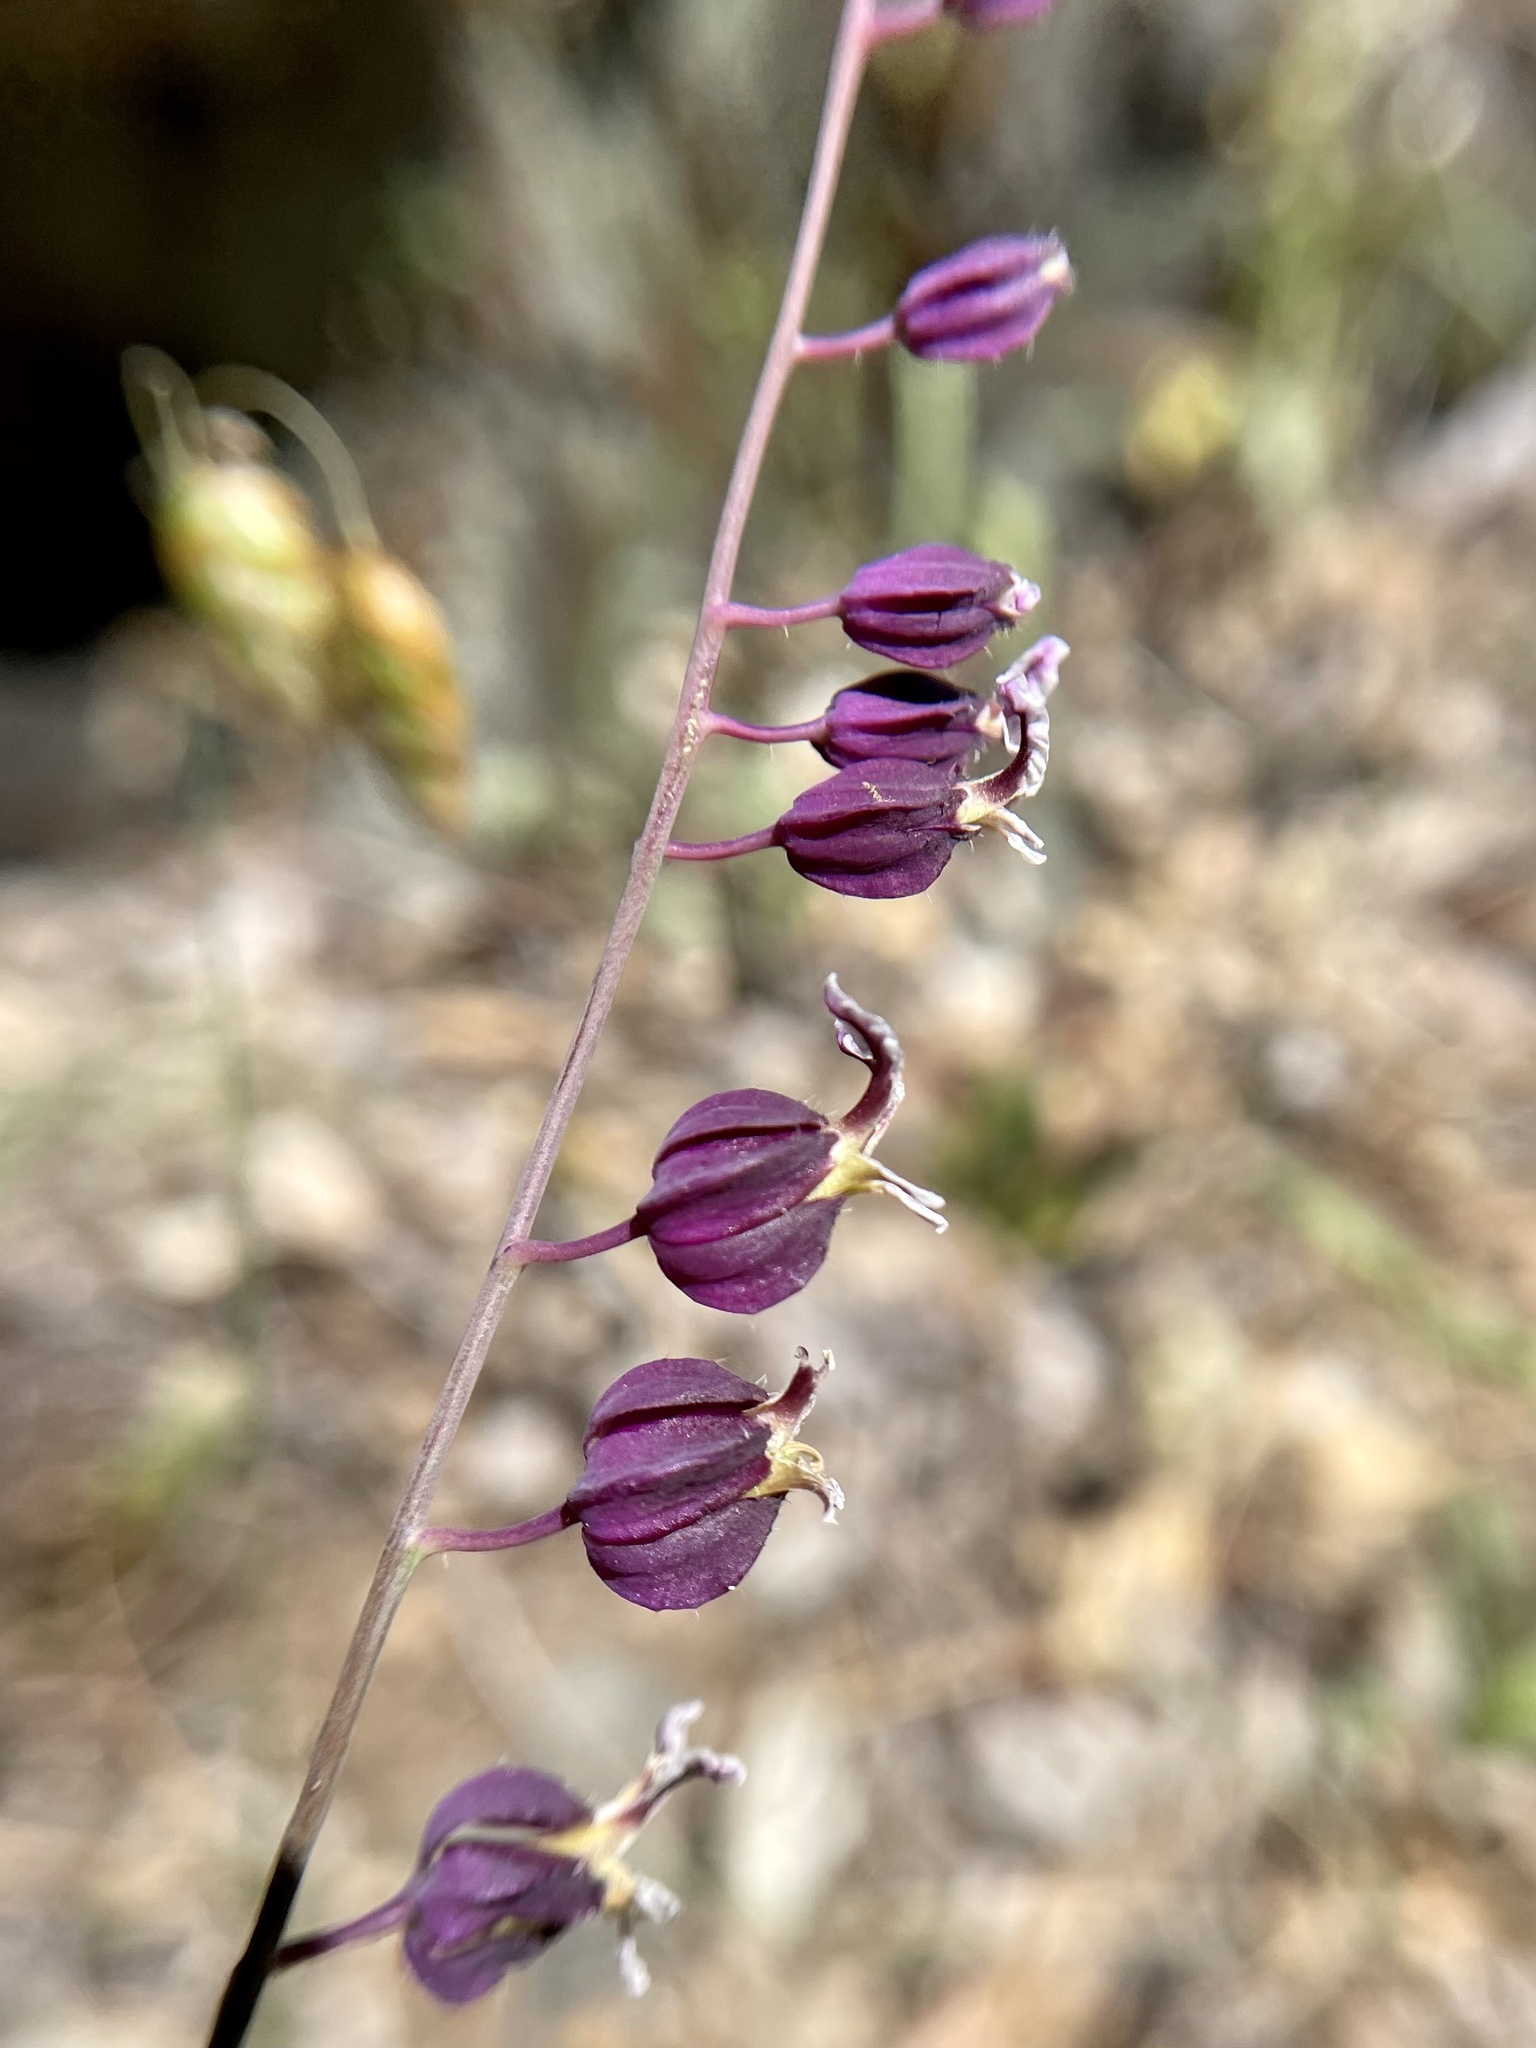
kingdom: Plantae
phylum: Tracheophyta
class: Magnoliopsida
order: Brassicales
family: Brassicaceae
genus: Streptanthus
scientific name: Streptanthus glandulosus
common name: Jewel-flower
